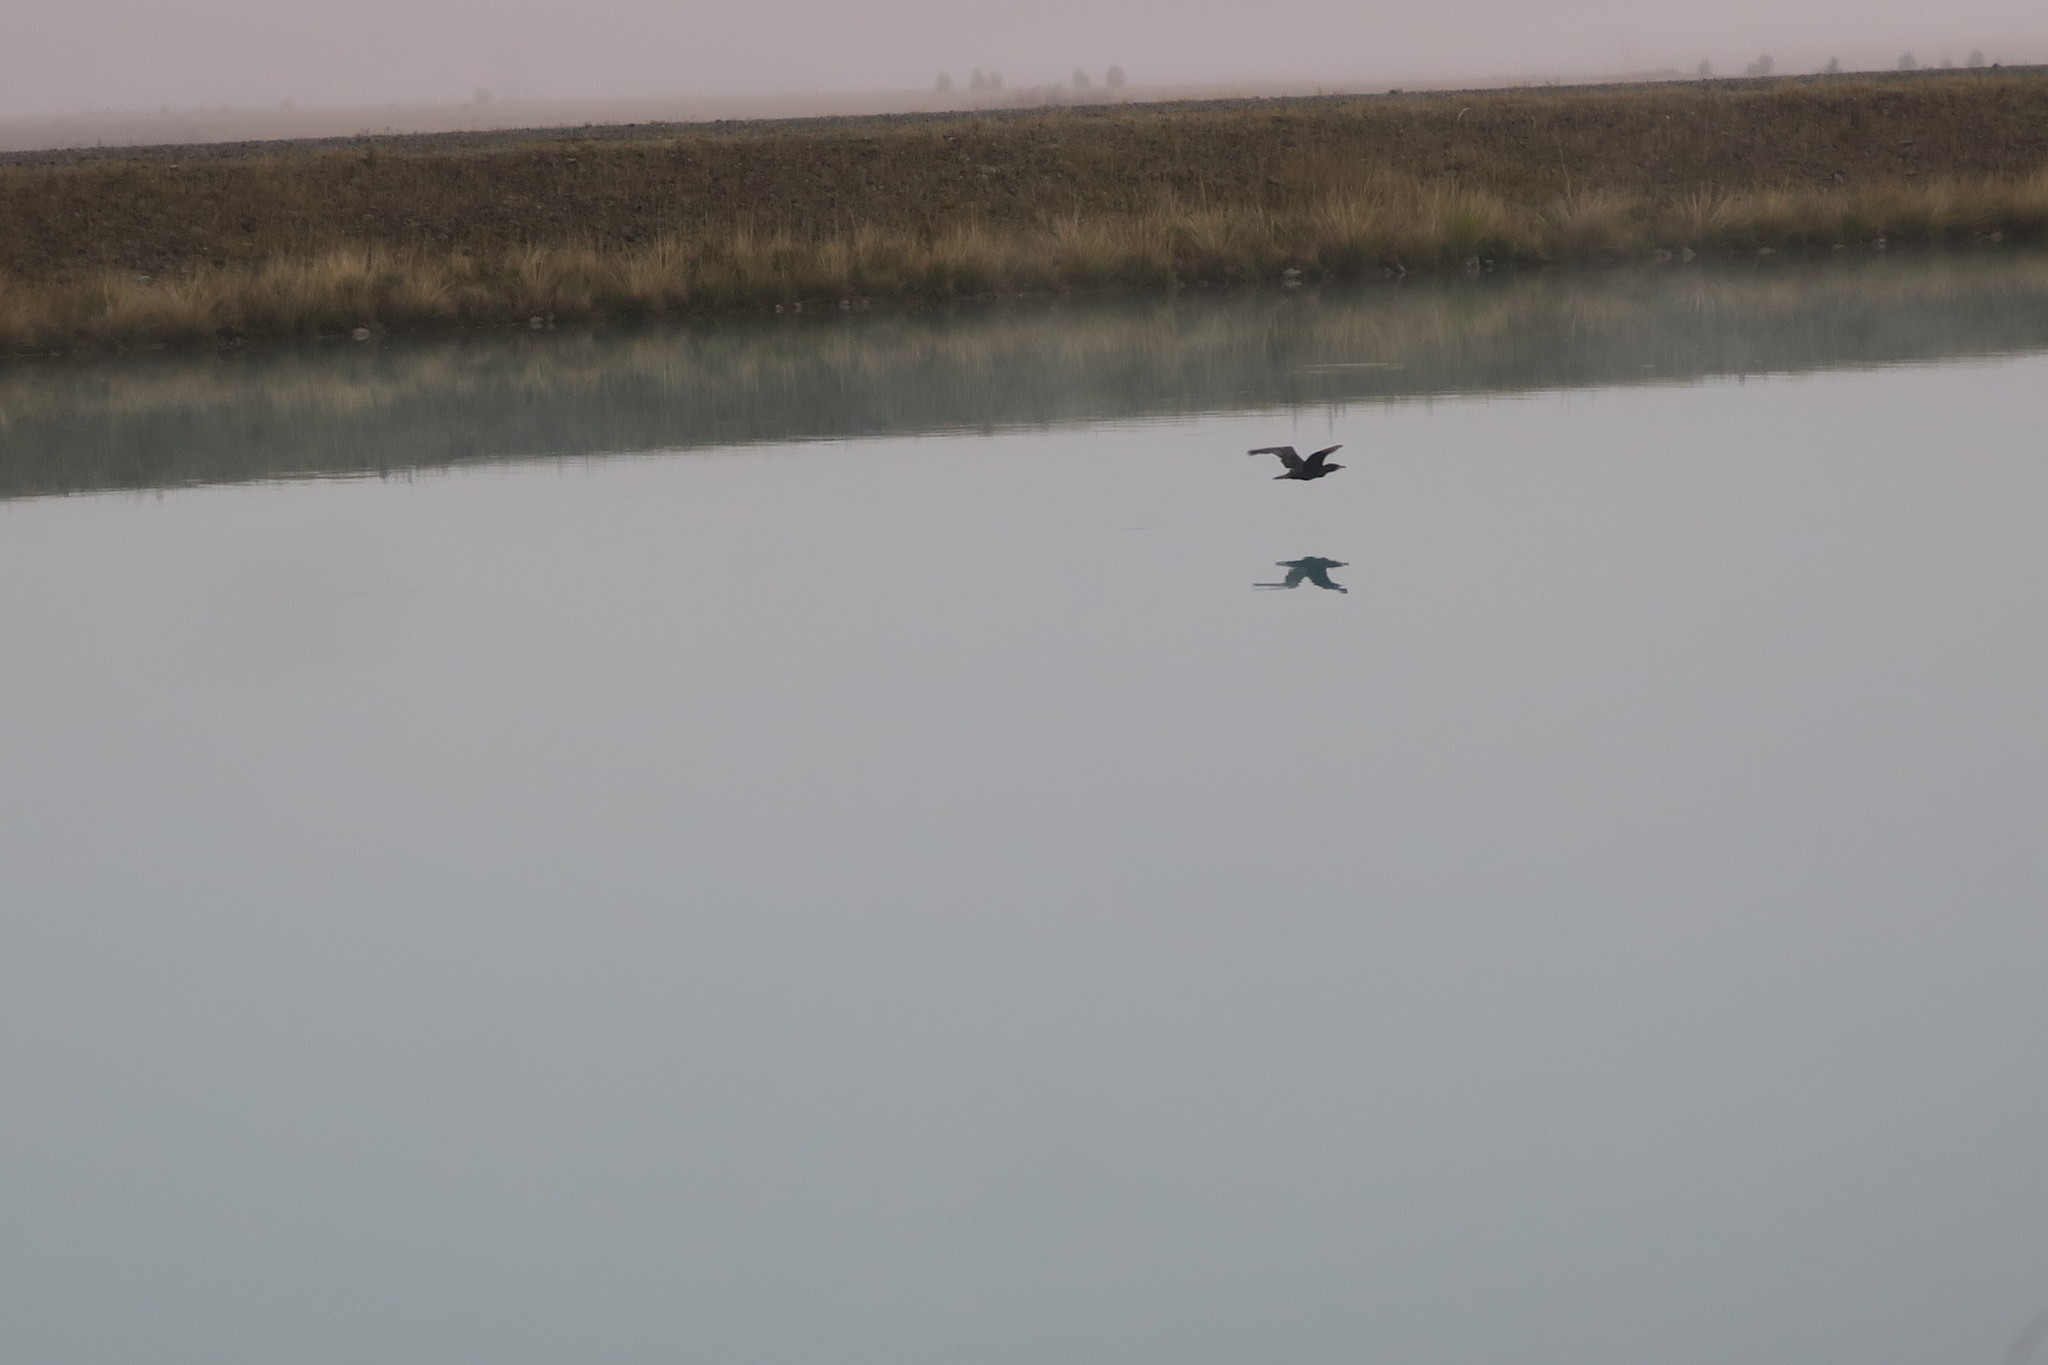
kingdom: Animalia
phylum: Chordata
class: Aves
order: Suliformes
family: Phalacrocoracidae
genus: Phalacrocorax
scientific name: Phalacrocorax carbo
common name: Great cormorant
